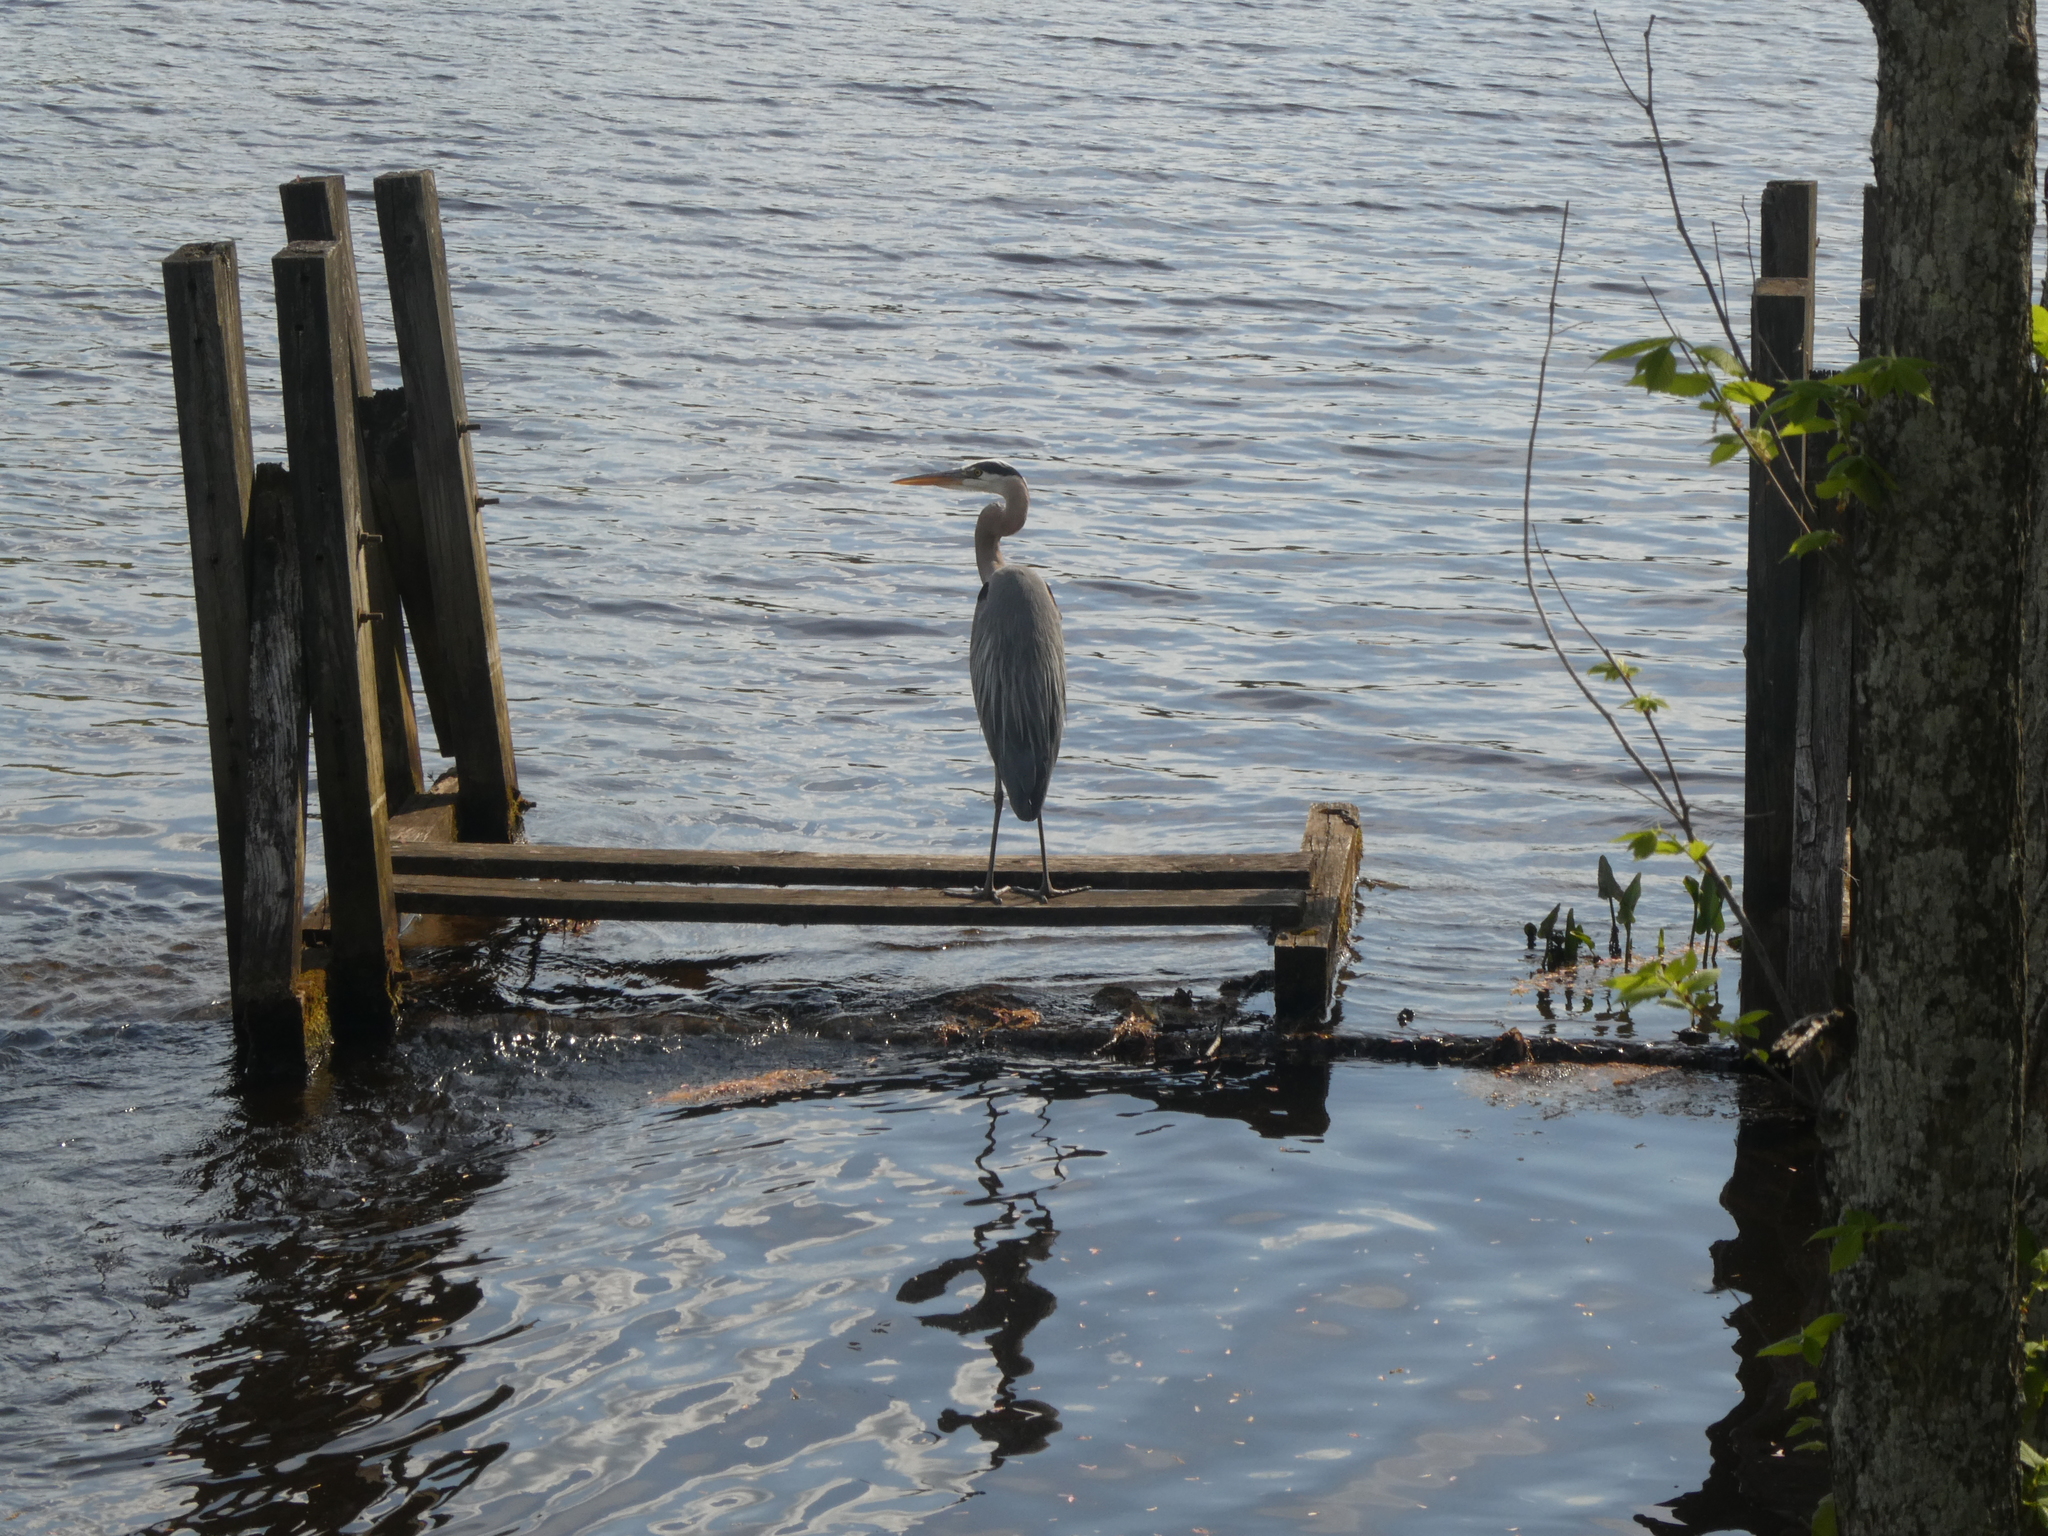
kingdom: Animalia
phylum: Chordata
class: Aves
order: Pelecaniformes
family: Ardeidae
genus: Ardea
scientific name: Ardea herodias
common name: Great blue heron
